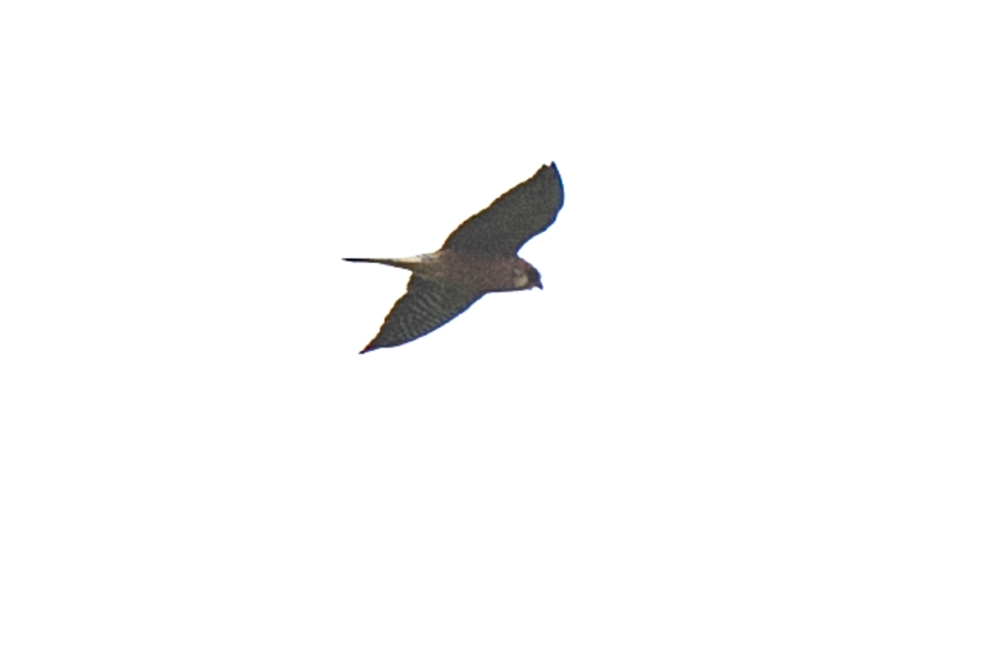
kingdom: Animalia
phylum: Chordata
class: Aves
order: Falconiformes
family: Falconidae
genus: Falco
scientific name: Falco vespertinus
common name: Red-footed falcon
